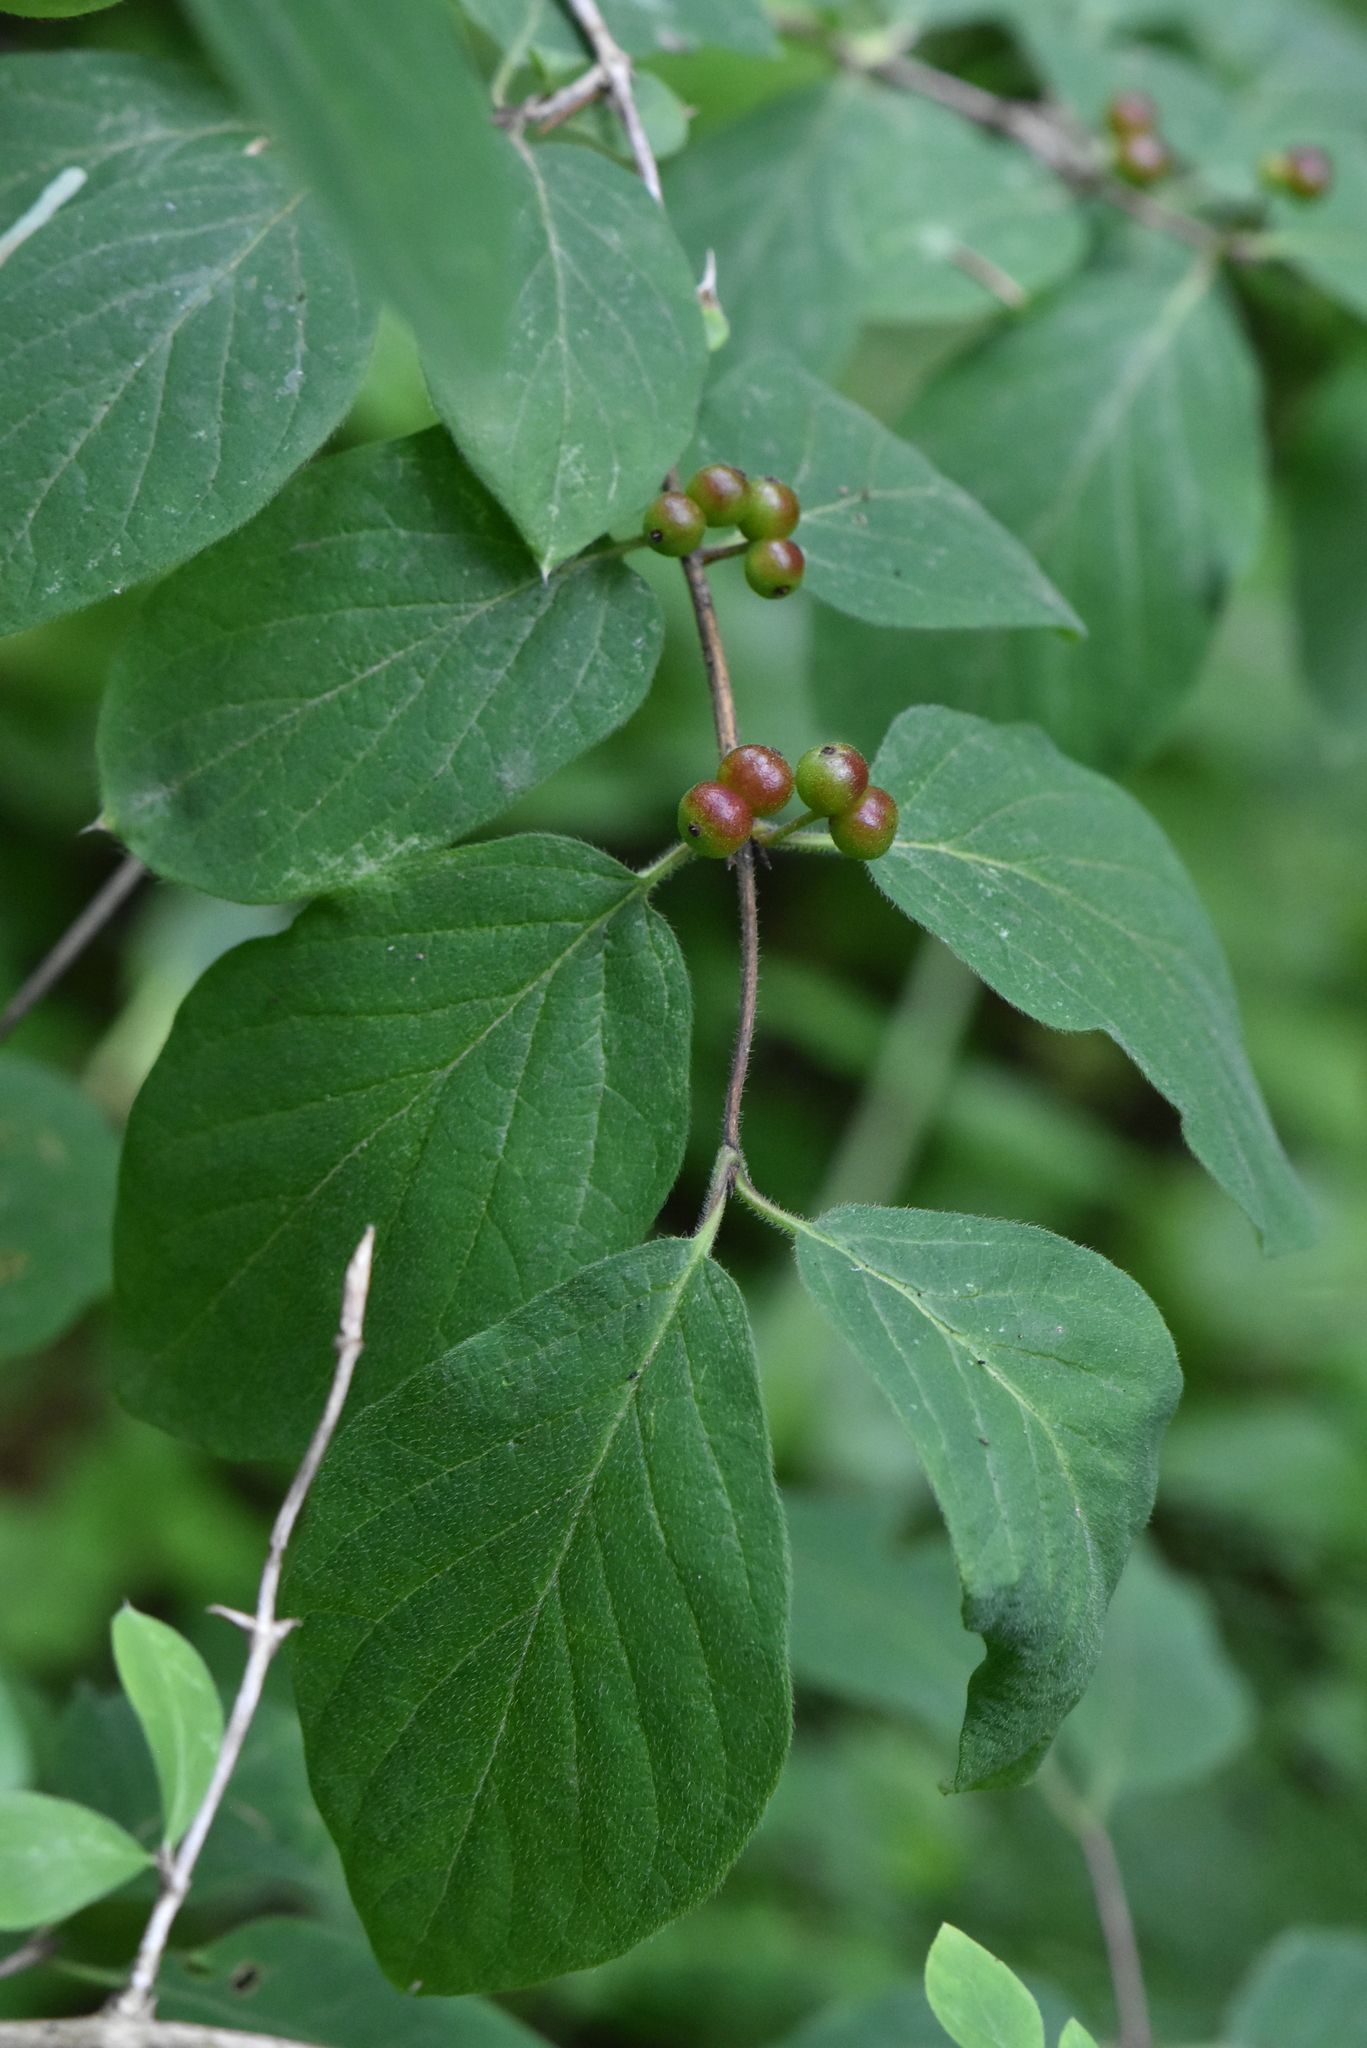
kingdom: Plantae
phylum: Tracheophyta
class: Magnoliopsida
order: Dipsacales
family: Caprifoliaceae
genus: Lonicera
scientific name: Lonicera xylosteum
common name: Fly honeysuckle
